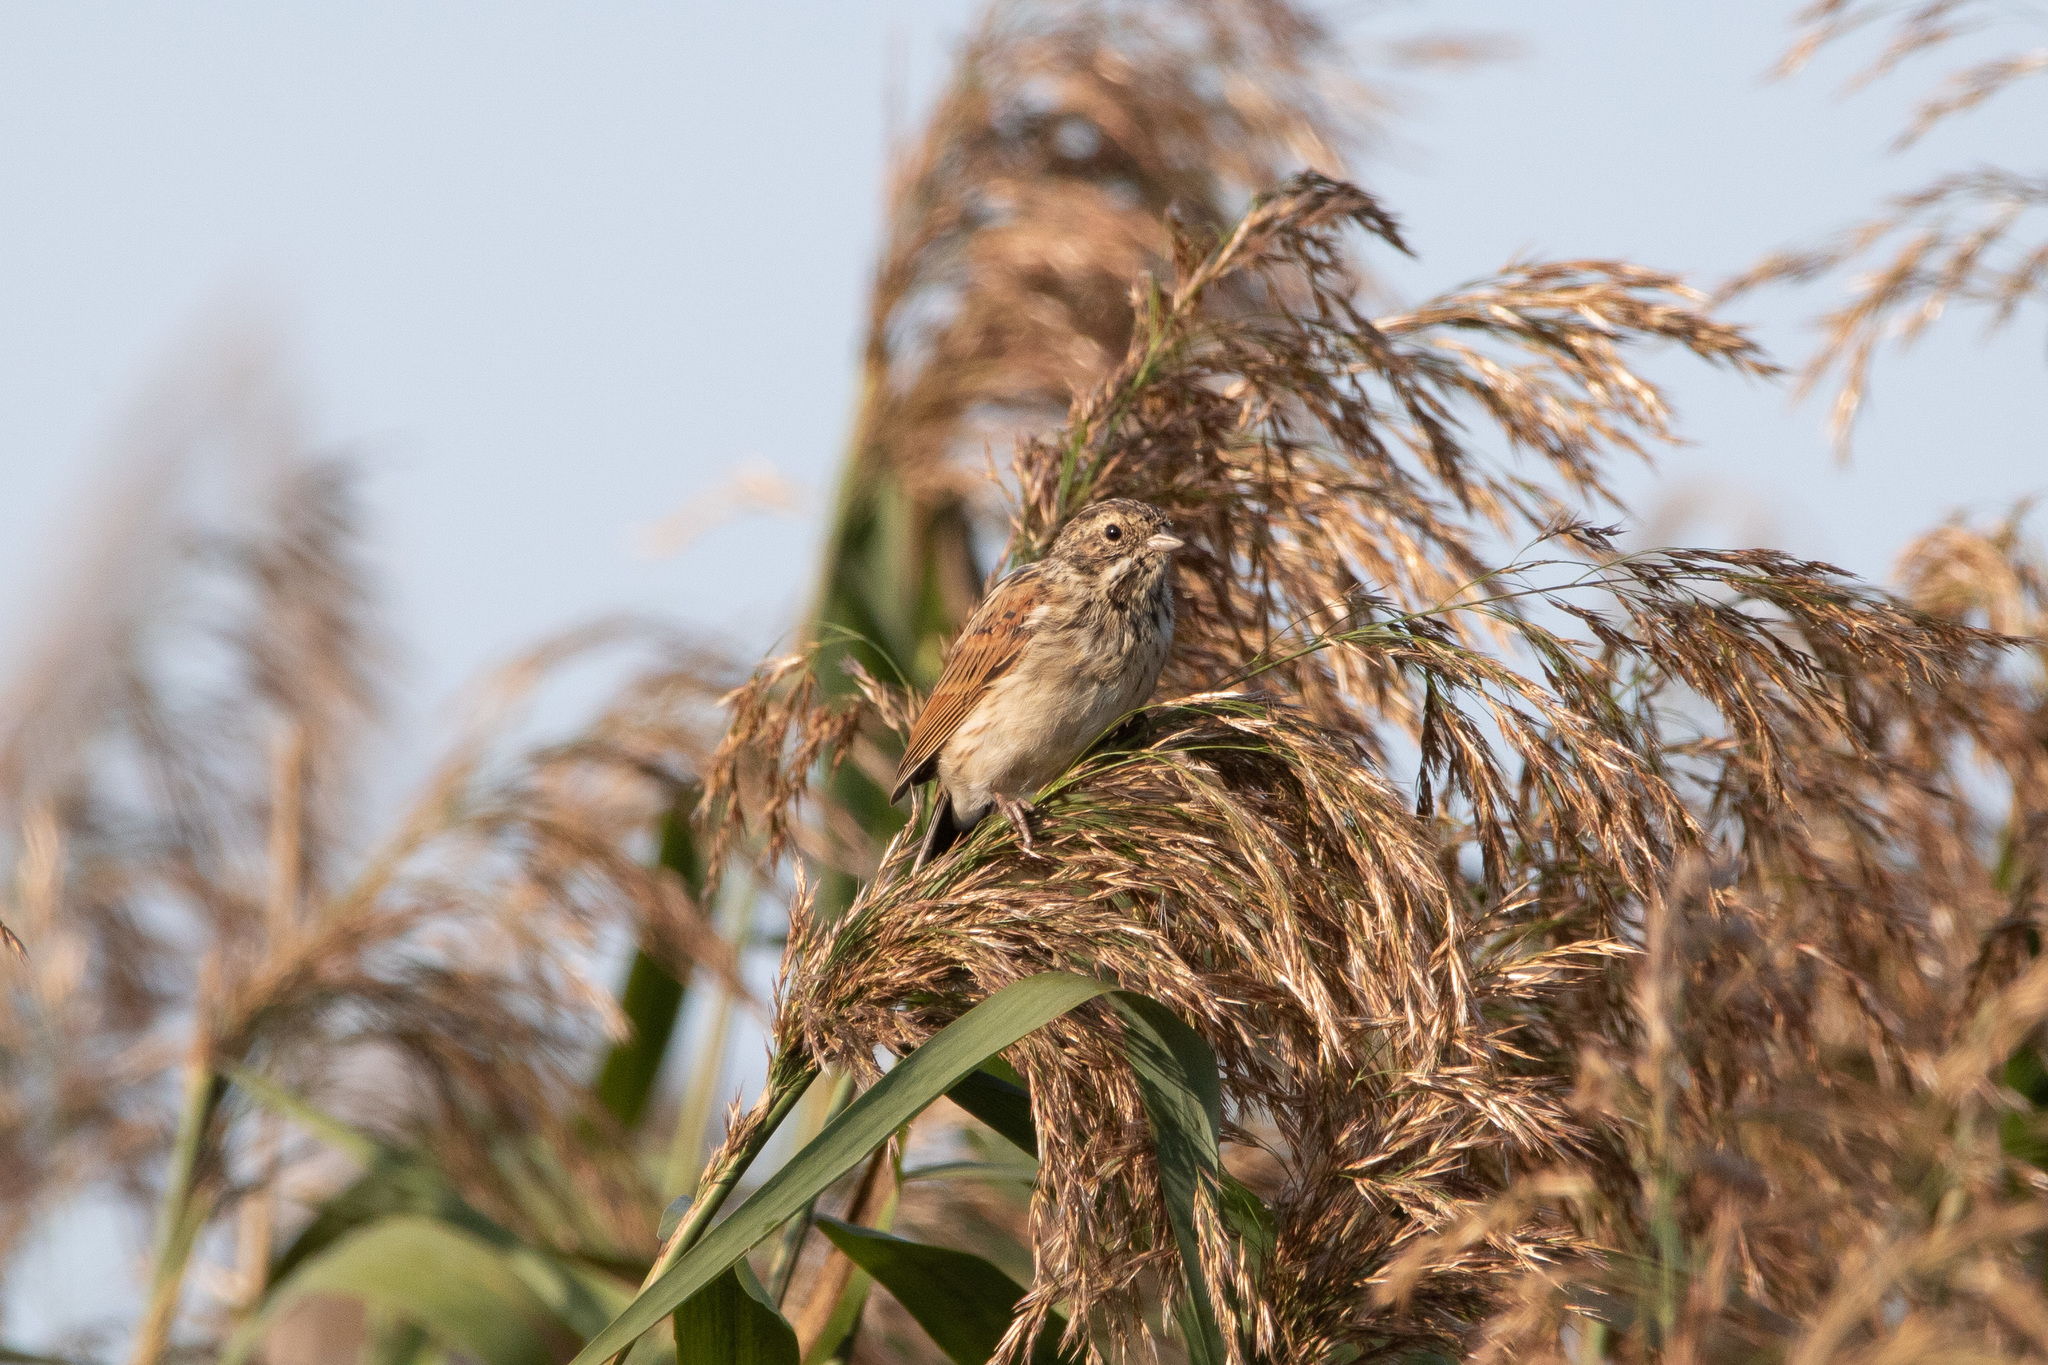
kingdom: Animalia
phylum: Chordata
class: Aves
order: Passeriformes
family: Emberizidae
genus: Emberiza
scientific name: Emberiza schoeniclus
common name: Reed bunting
